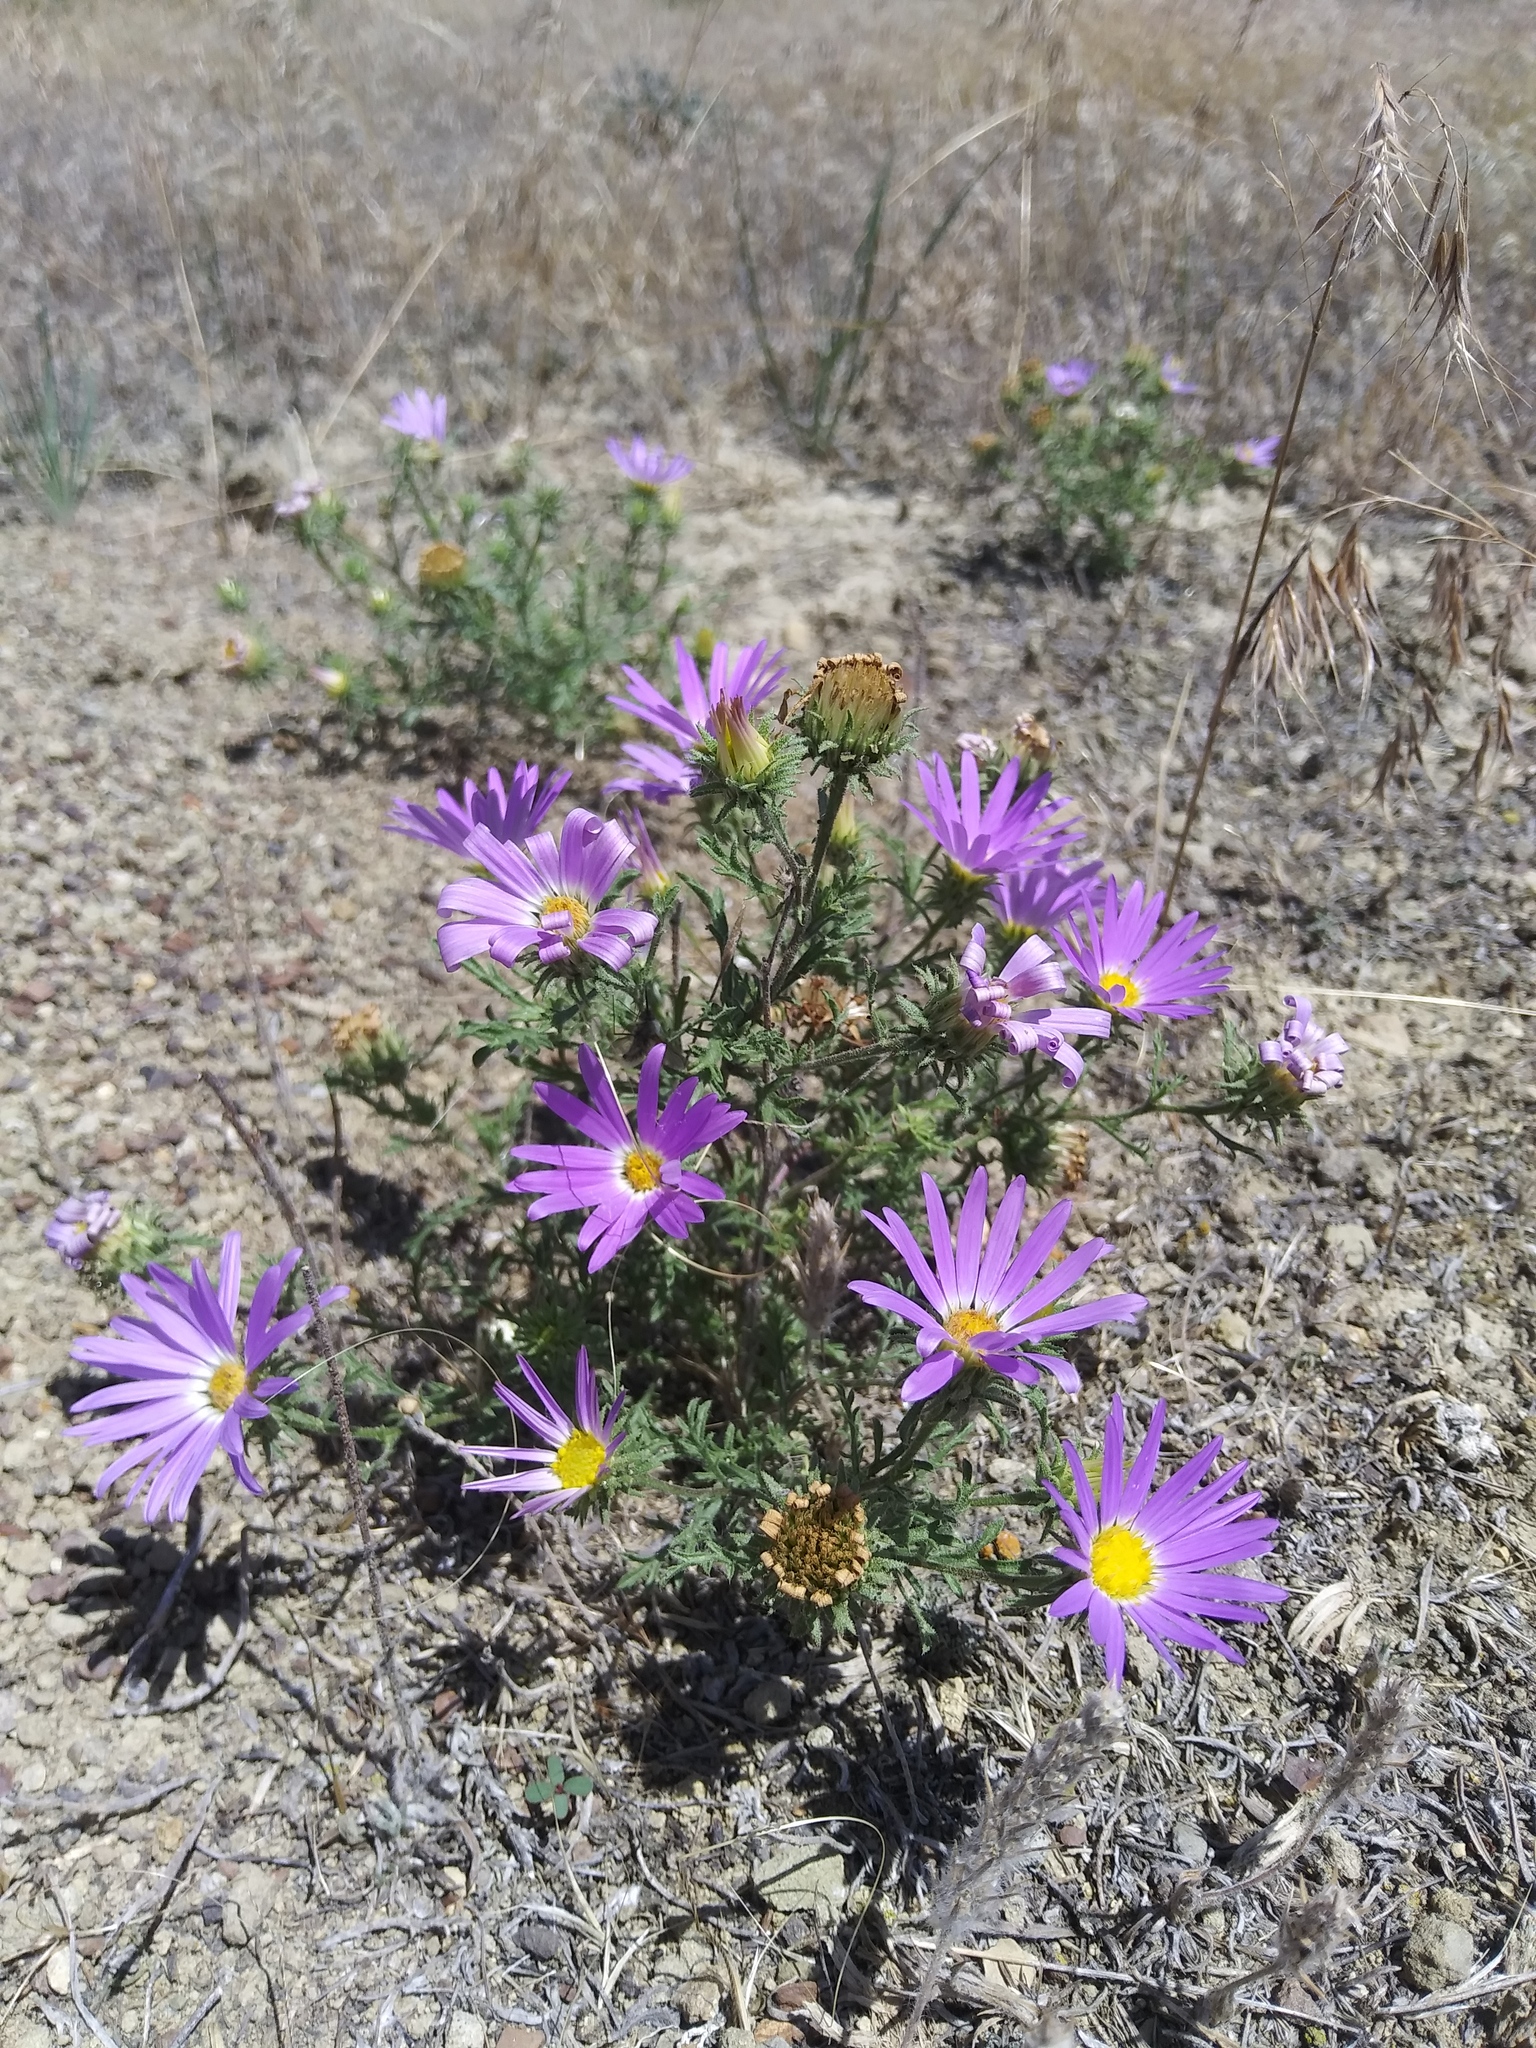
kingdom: Plantae
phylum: Tracheophyta
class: Magnoliopsida
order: Asterales
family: Asteraceae
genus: Machaeranthera
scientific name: Machaeranthera tanacetifolia
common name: Tansy-aster
